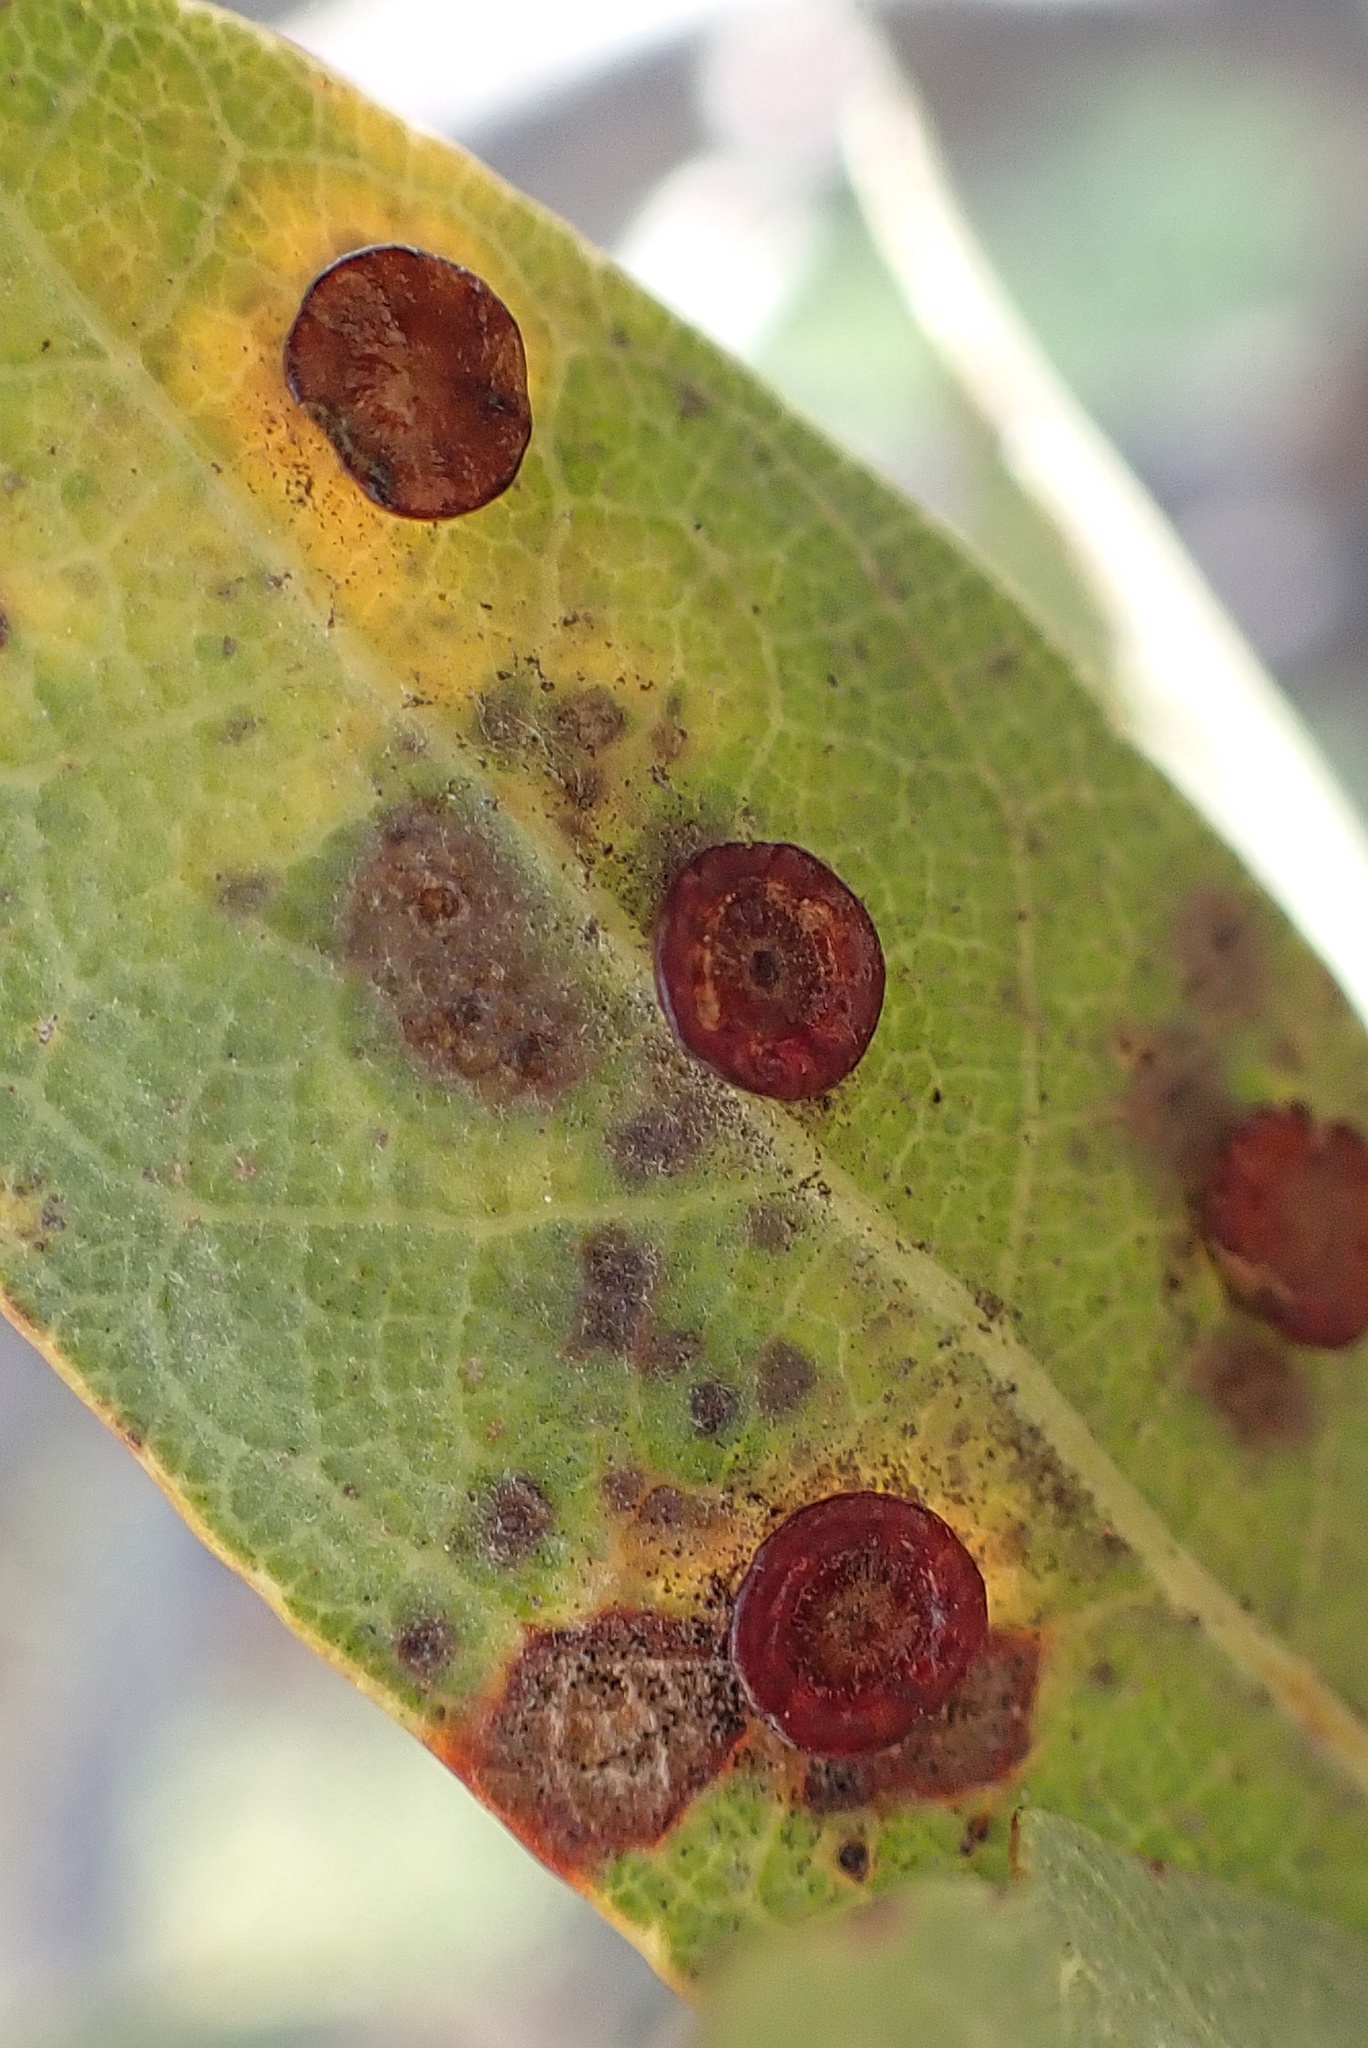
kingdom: Animalia
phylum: Arthropoda
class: Insecta
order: Hymenoptera
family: Cynipidae
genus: Andricus
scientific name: Andricus
